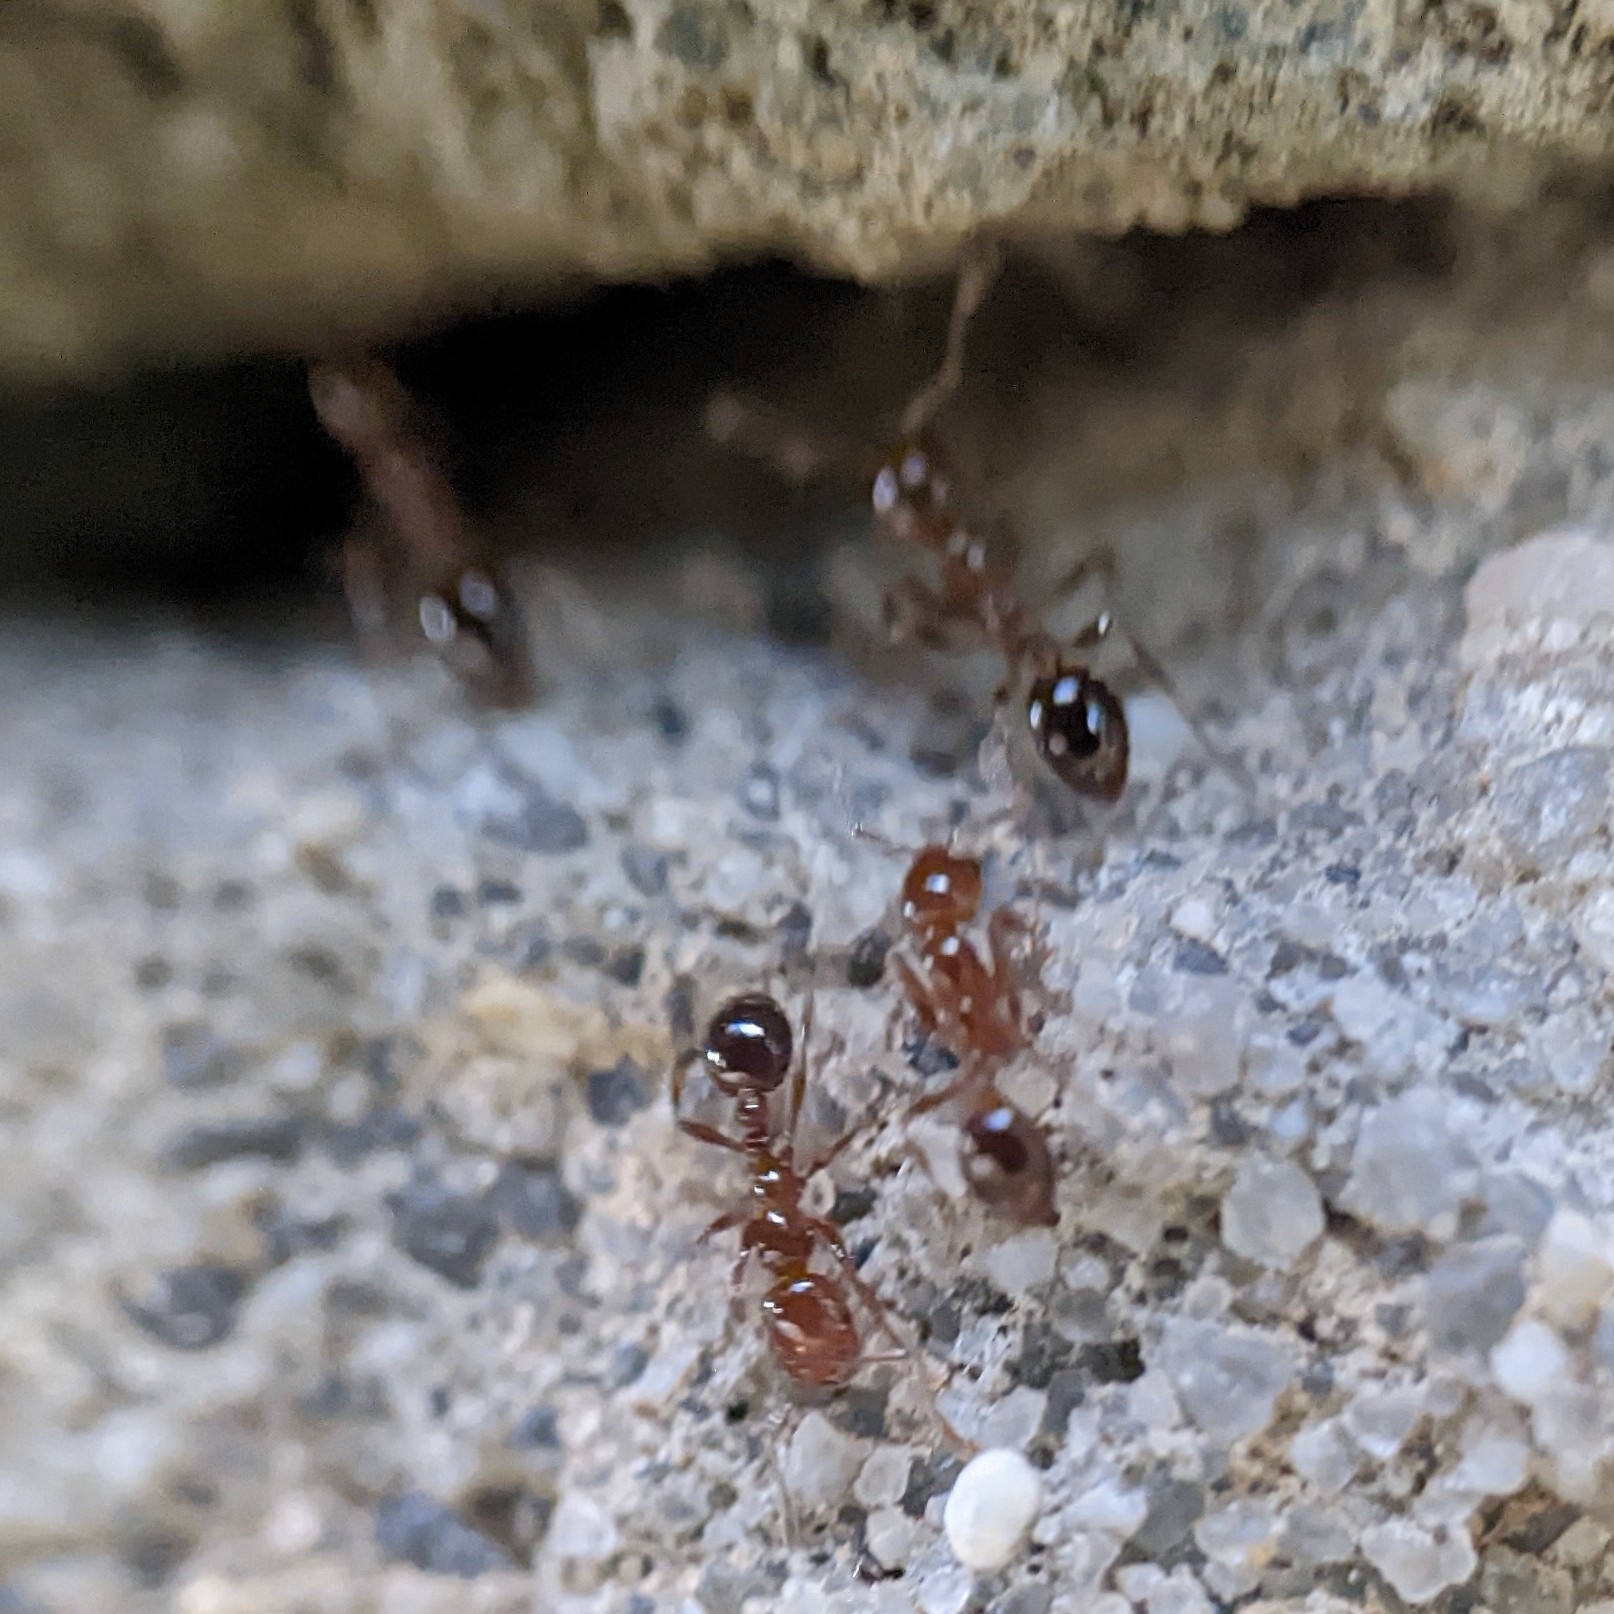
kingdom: Animalia
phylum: Arthropoda
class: Insecta
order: Hymenoptera
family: Formicidae
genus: Solenopsis
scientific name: Solenopsis invicta
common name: Red imported fire ant
